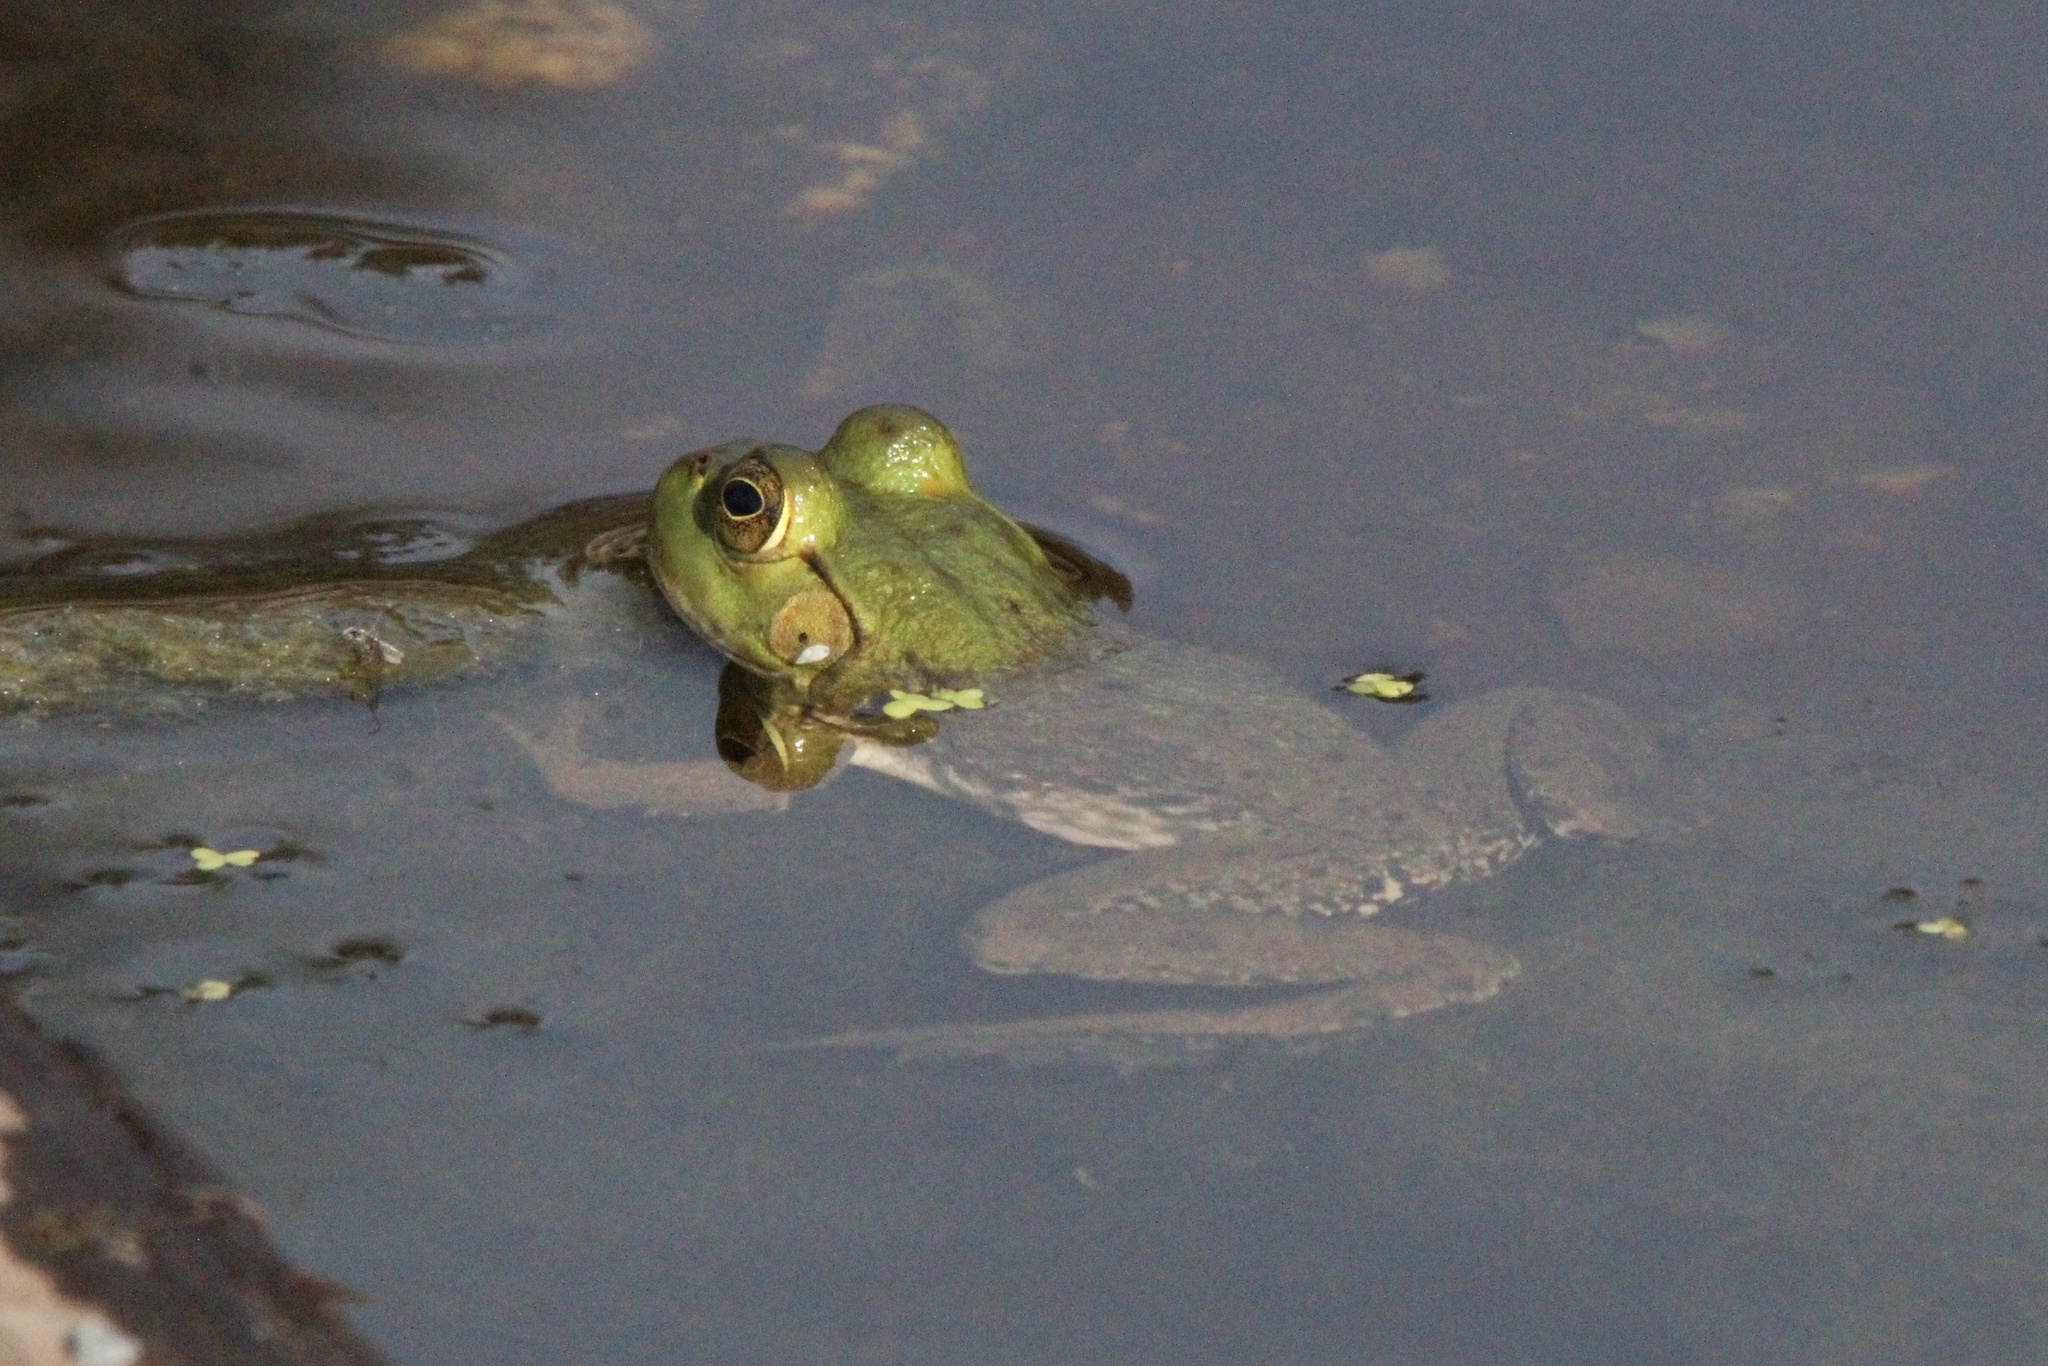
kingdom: Animalia
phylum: Chordata
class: Amphibia
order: Anura
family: Ranidae
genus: Lithobates
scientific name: Lithobates catesbeianus
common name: American bullfrog
